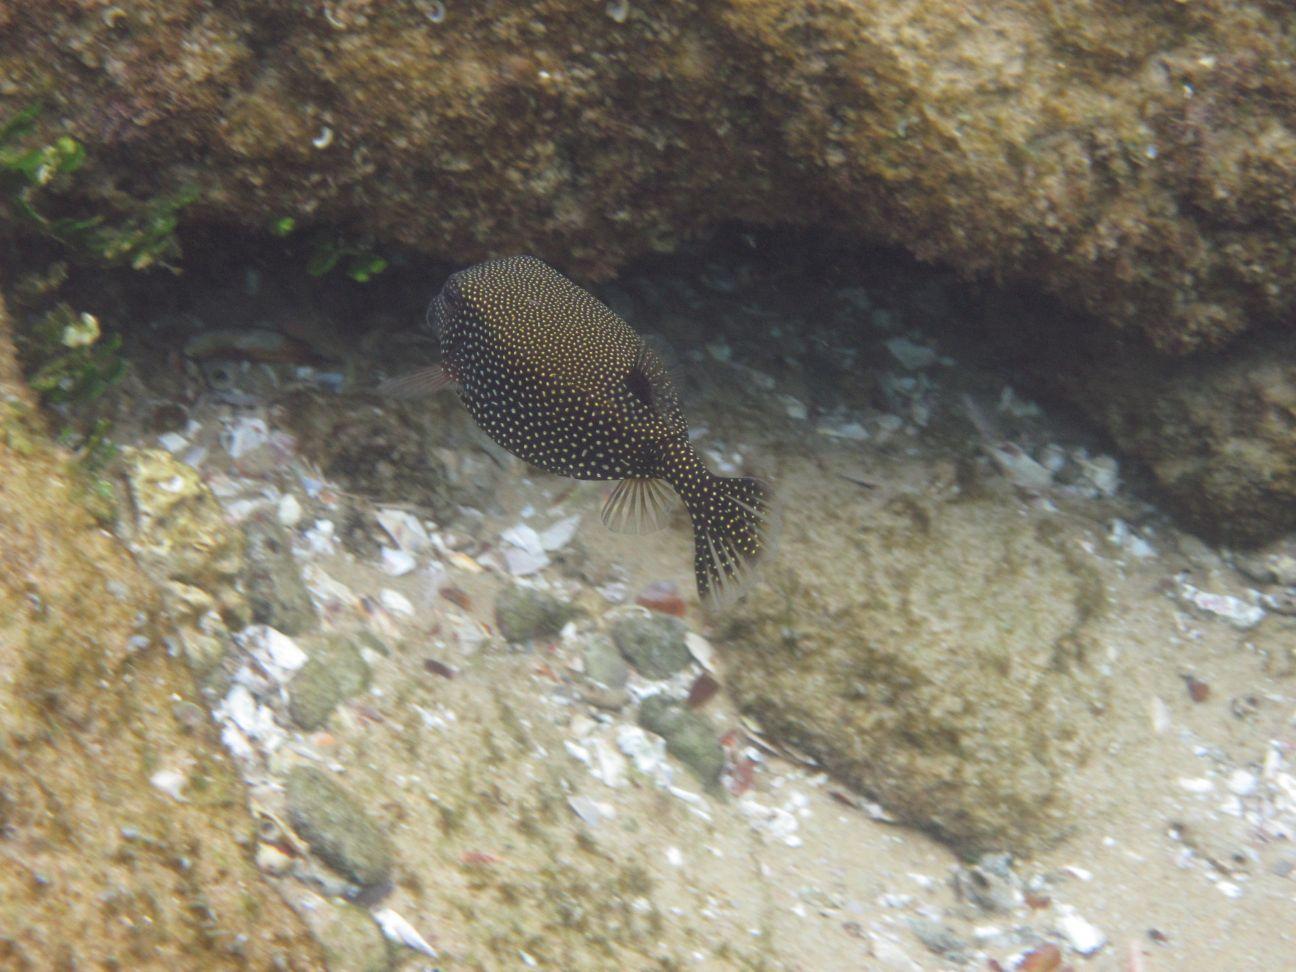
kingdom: Animalia
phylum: Chordata
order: Tetraodontiformes
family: Ostraciidae
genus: Ostracion
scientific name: Ostracion meleagris
